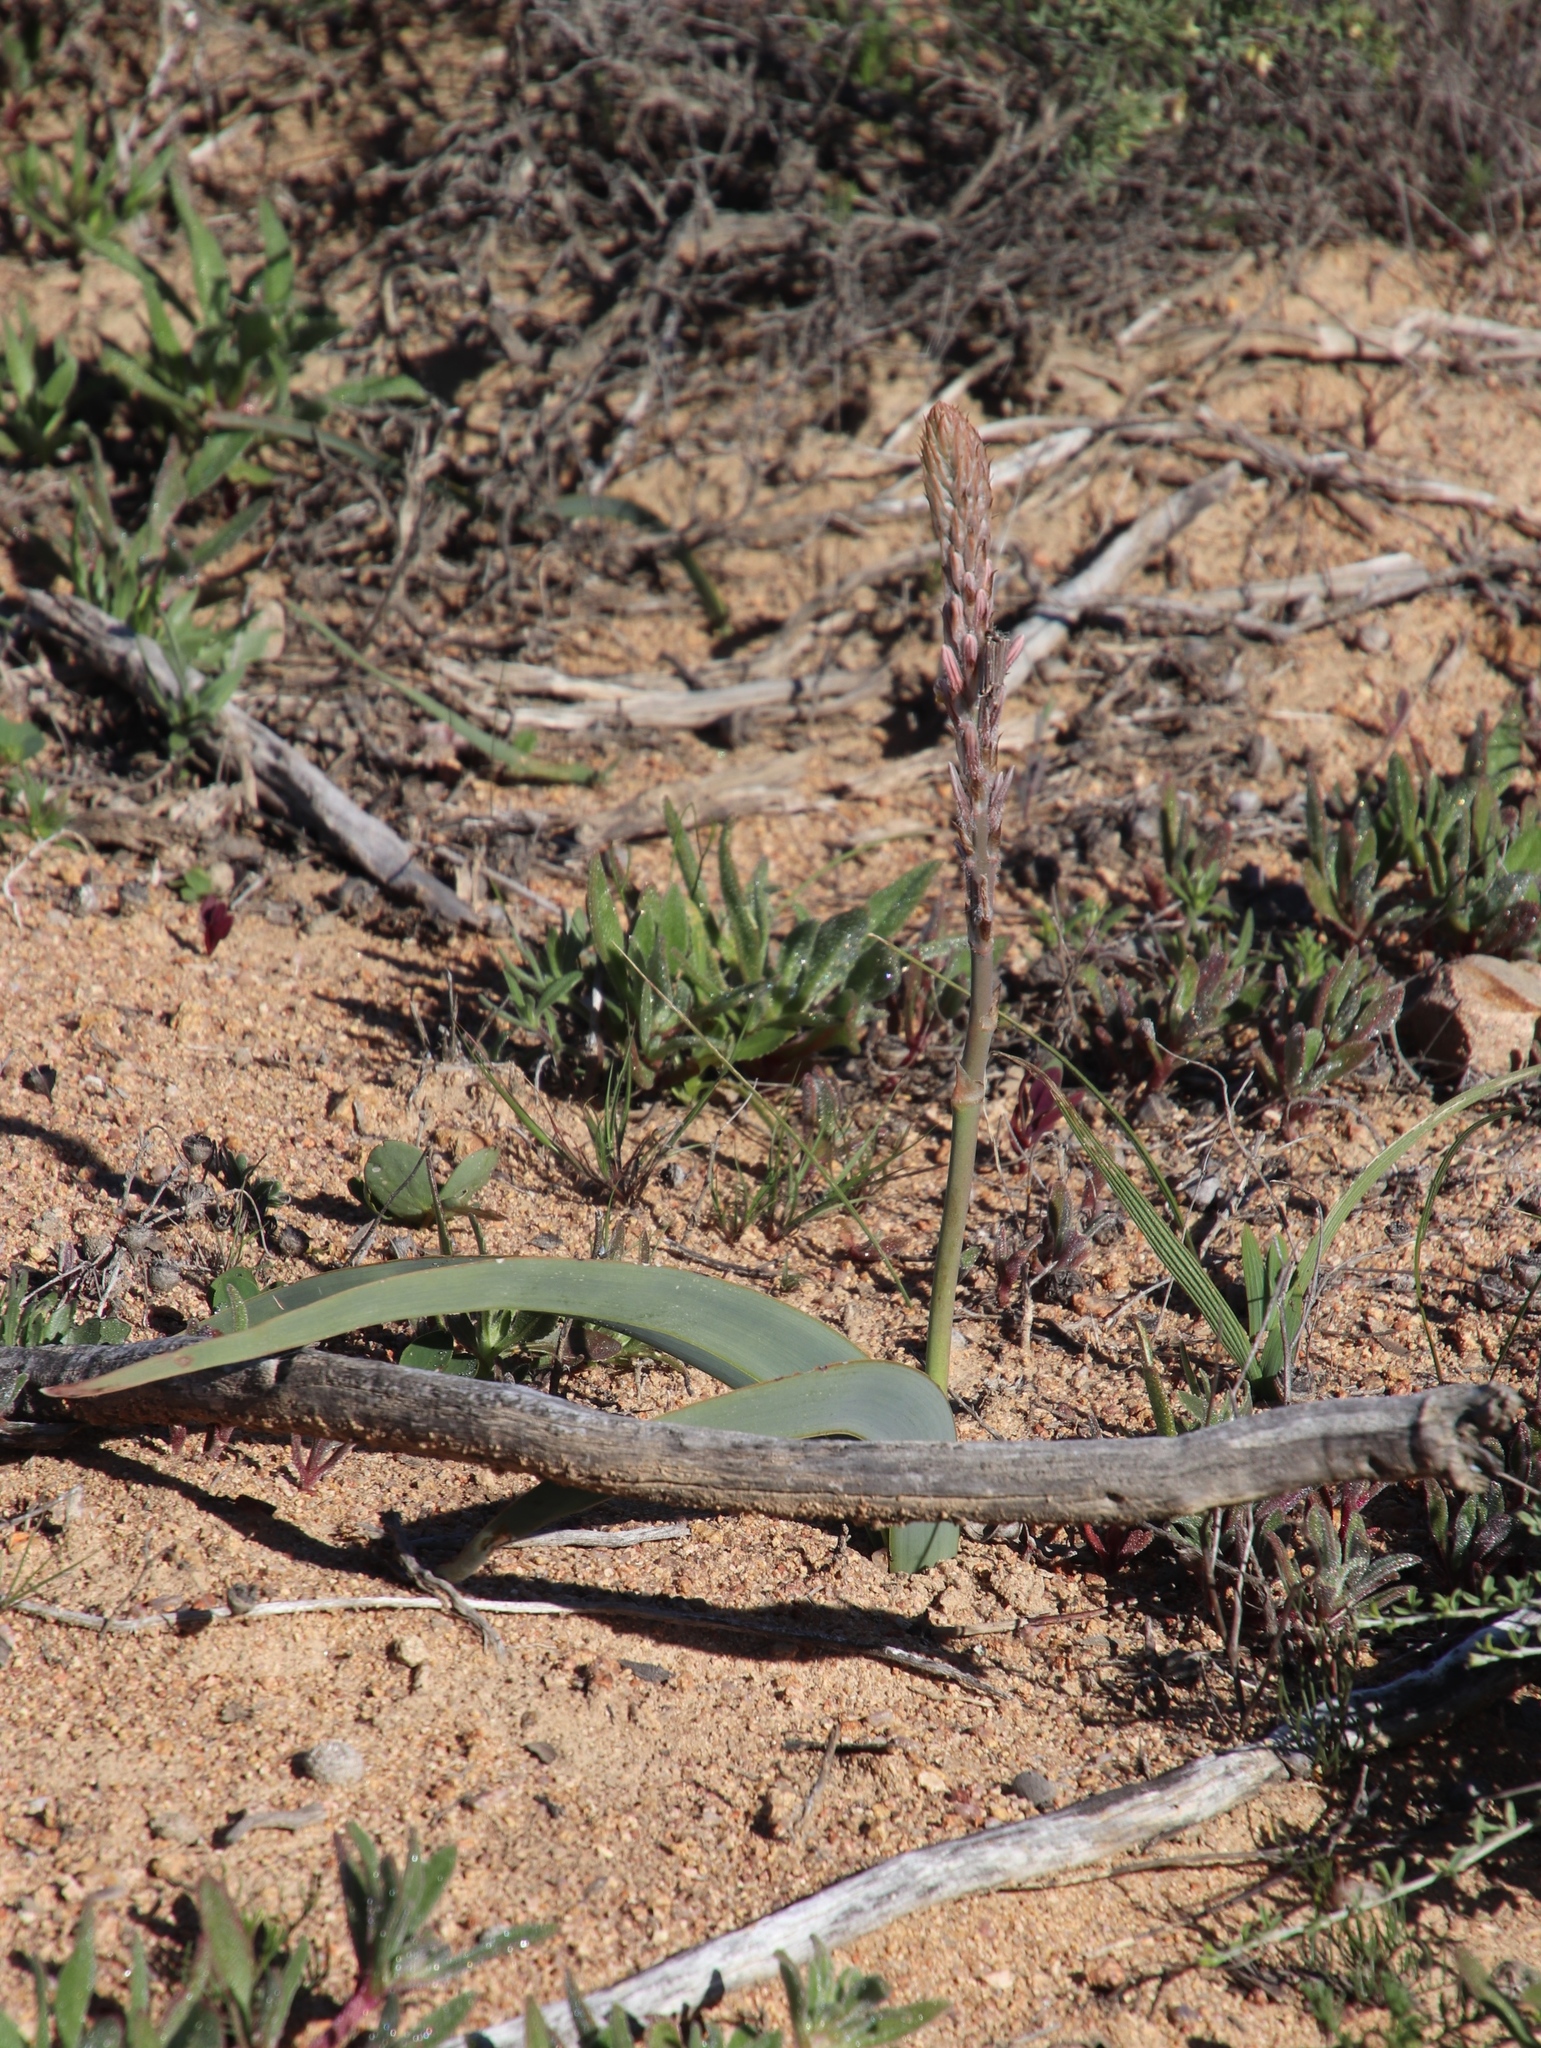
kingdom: Plantae
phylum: Tracheophyta
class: Liliopsida
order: Asparagales
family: Asphodelaceae
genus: Trachyandra
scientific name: Trachyandra falcata
